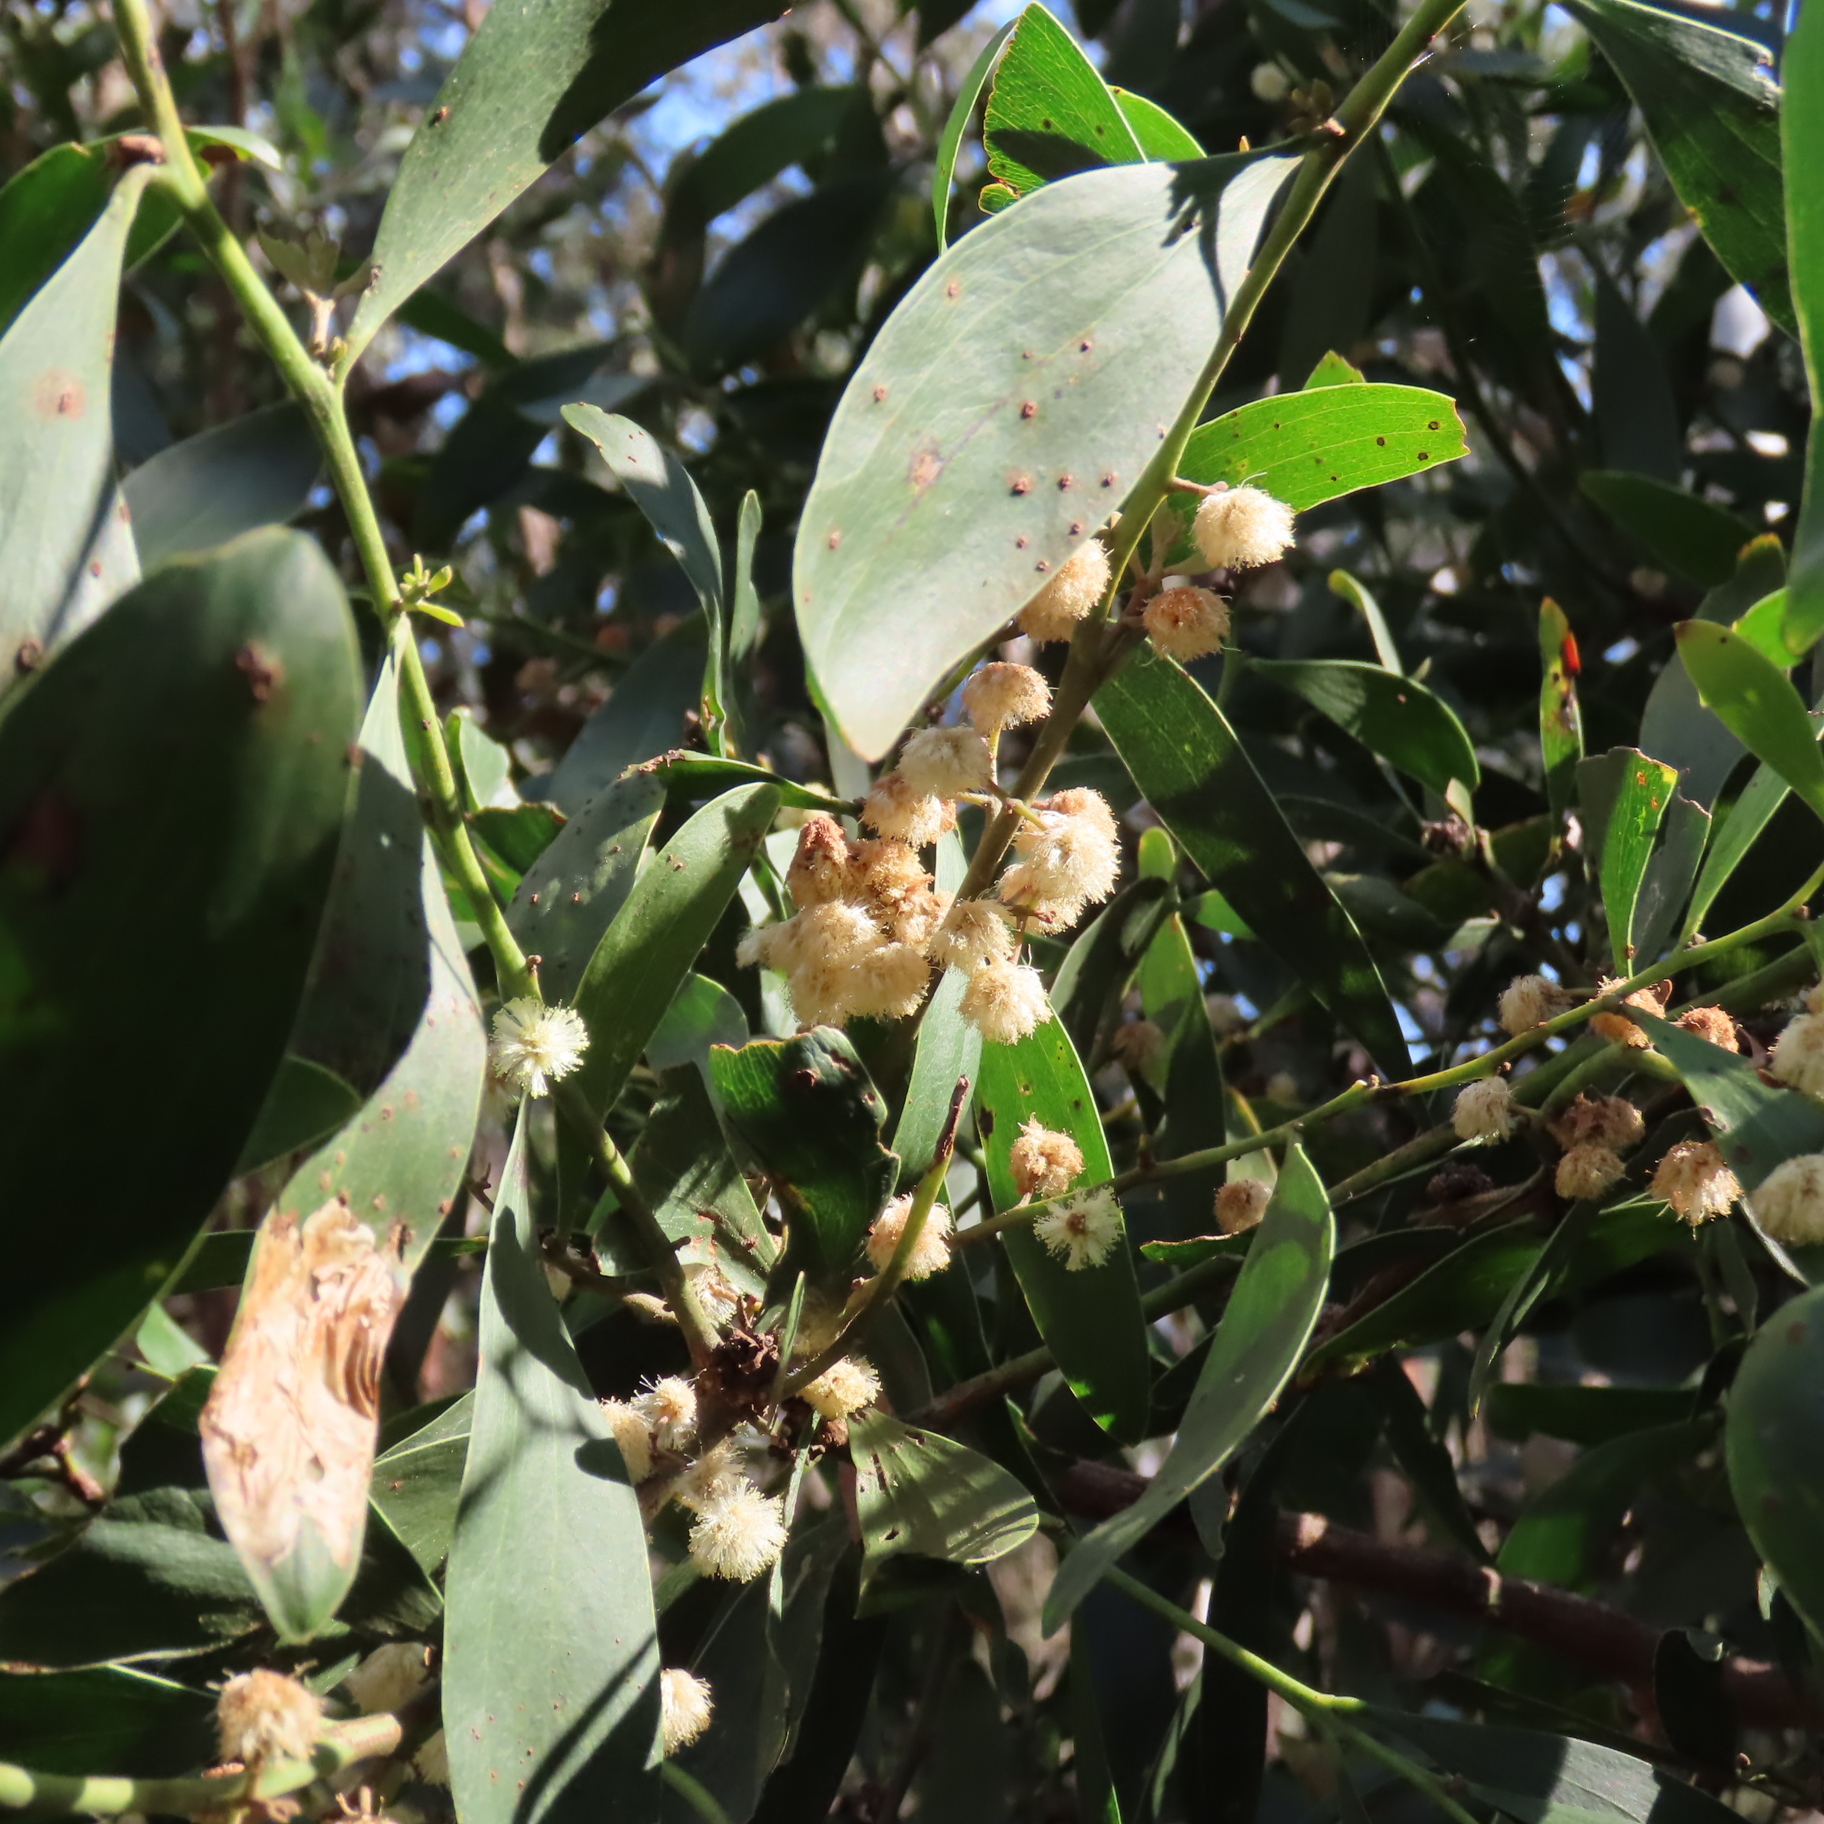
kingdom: Plantae
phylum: Tracheophyta
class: Magnoliopsida
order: Fabales
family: Fabaceae
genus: Acacia
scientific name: Acacia melanoxylon
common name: Blackwood
